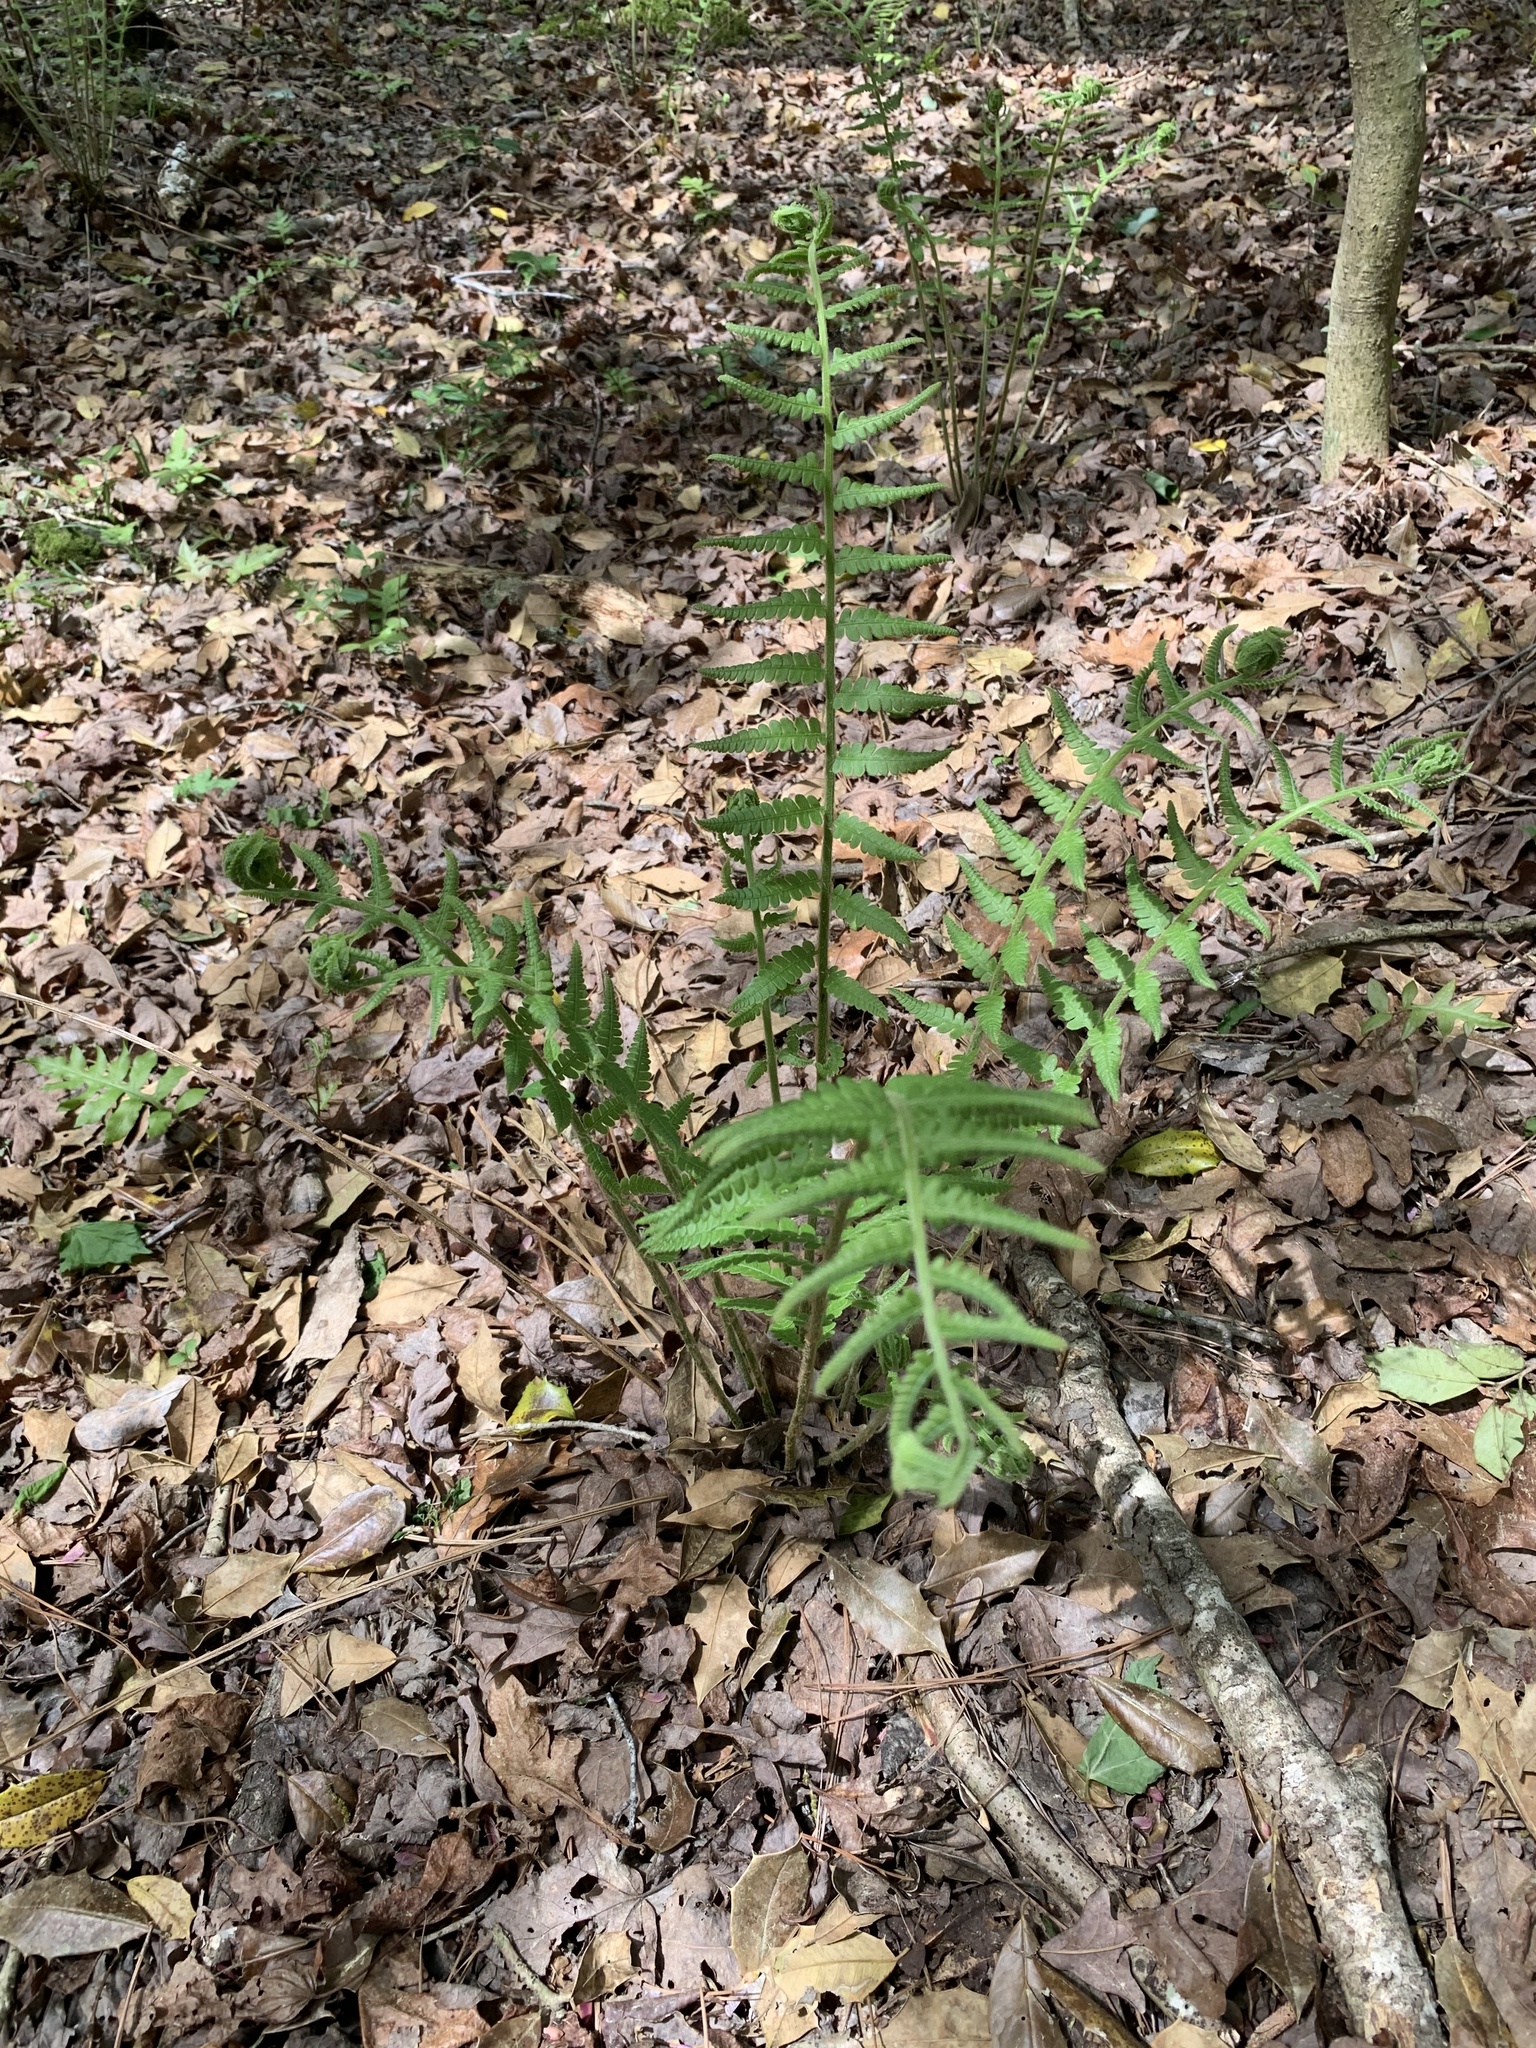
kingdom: Plantae
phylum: Tracheophyta
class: Polypodiopsida
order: Osmundales
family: Osmundaceae
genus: Osmundastrum
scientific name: Osmundastrum cinnamomeum
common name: Cinnamon fern
